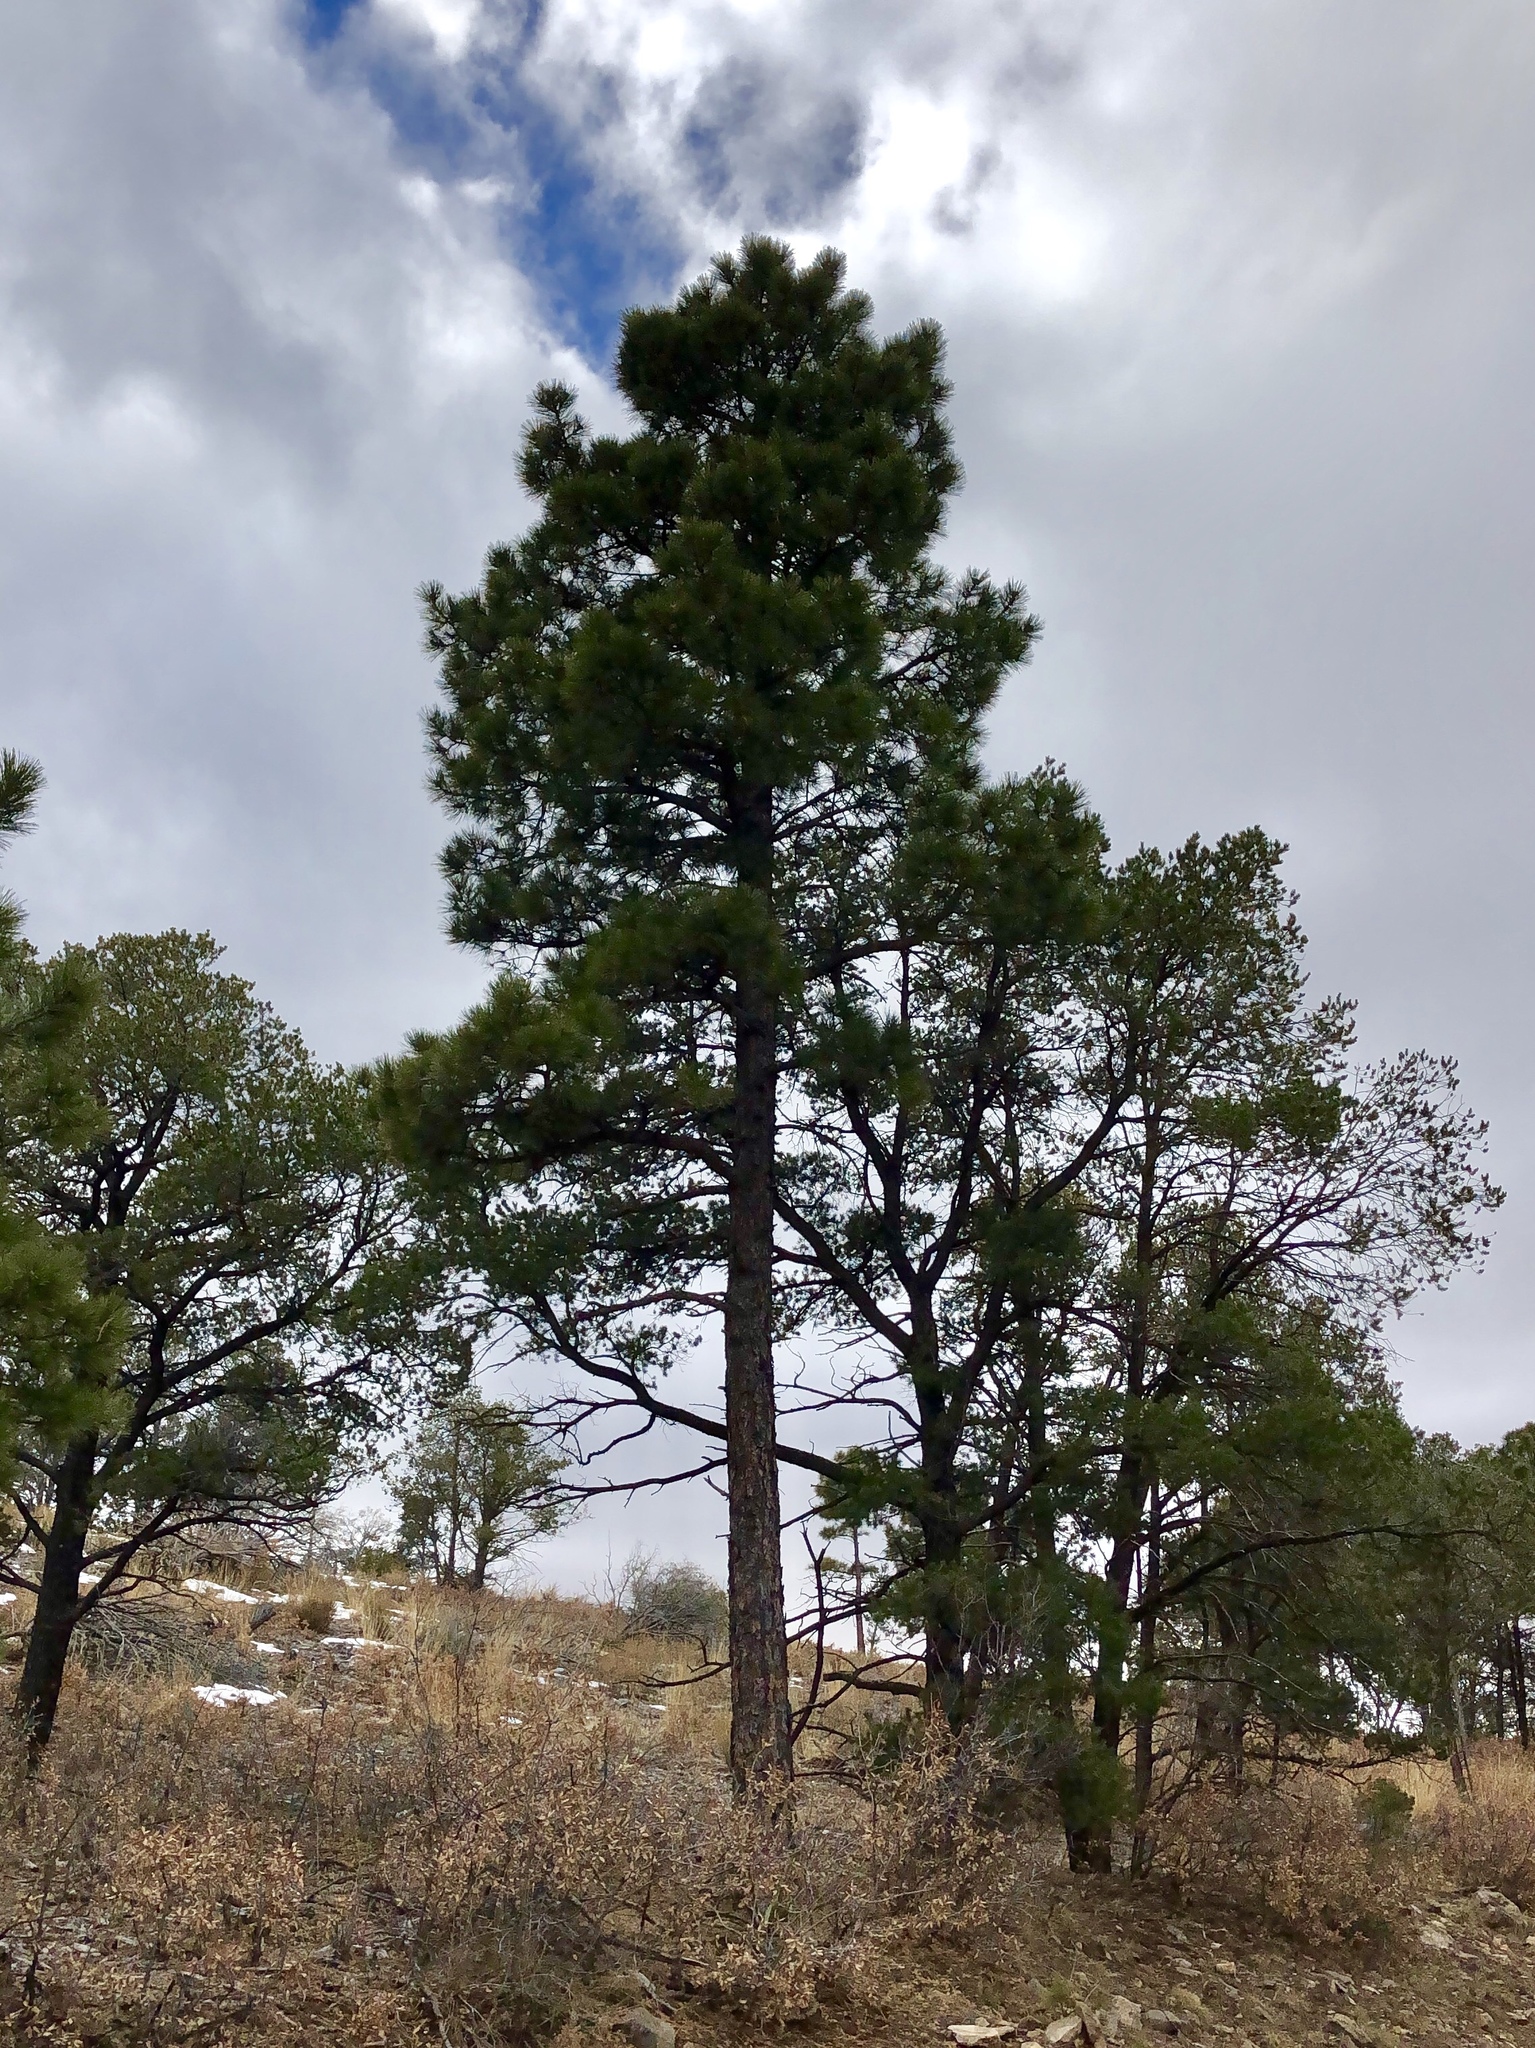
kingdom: Plantae
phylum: Tracheophyta
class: Pinopsida
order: Pinales
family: Pinaceae
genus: Pinus
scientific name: Pinus ponderosa
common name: Western yellow-pine
